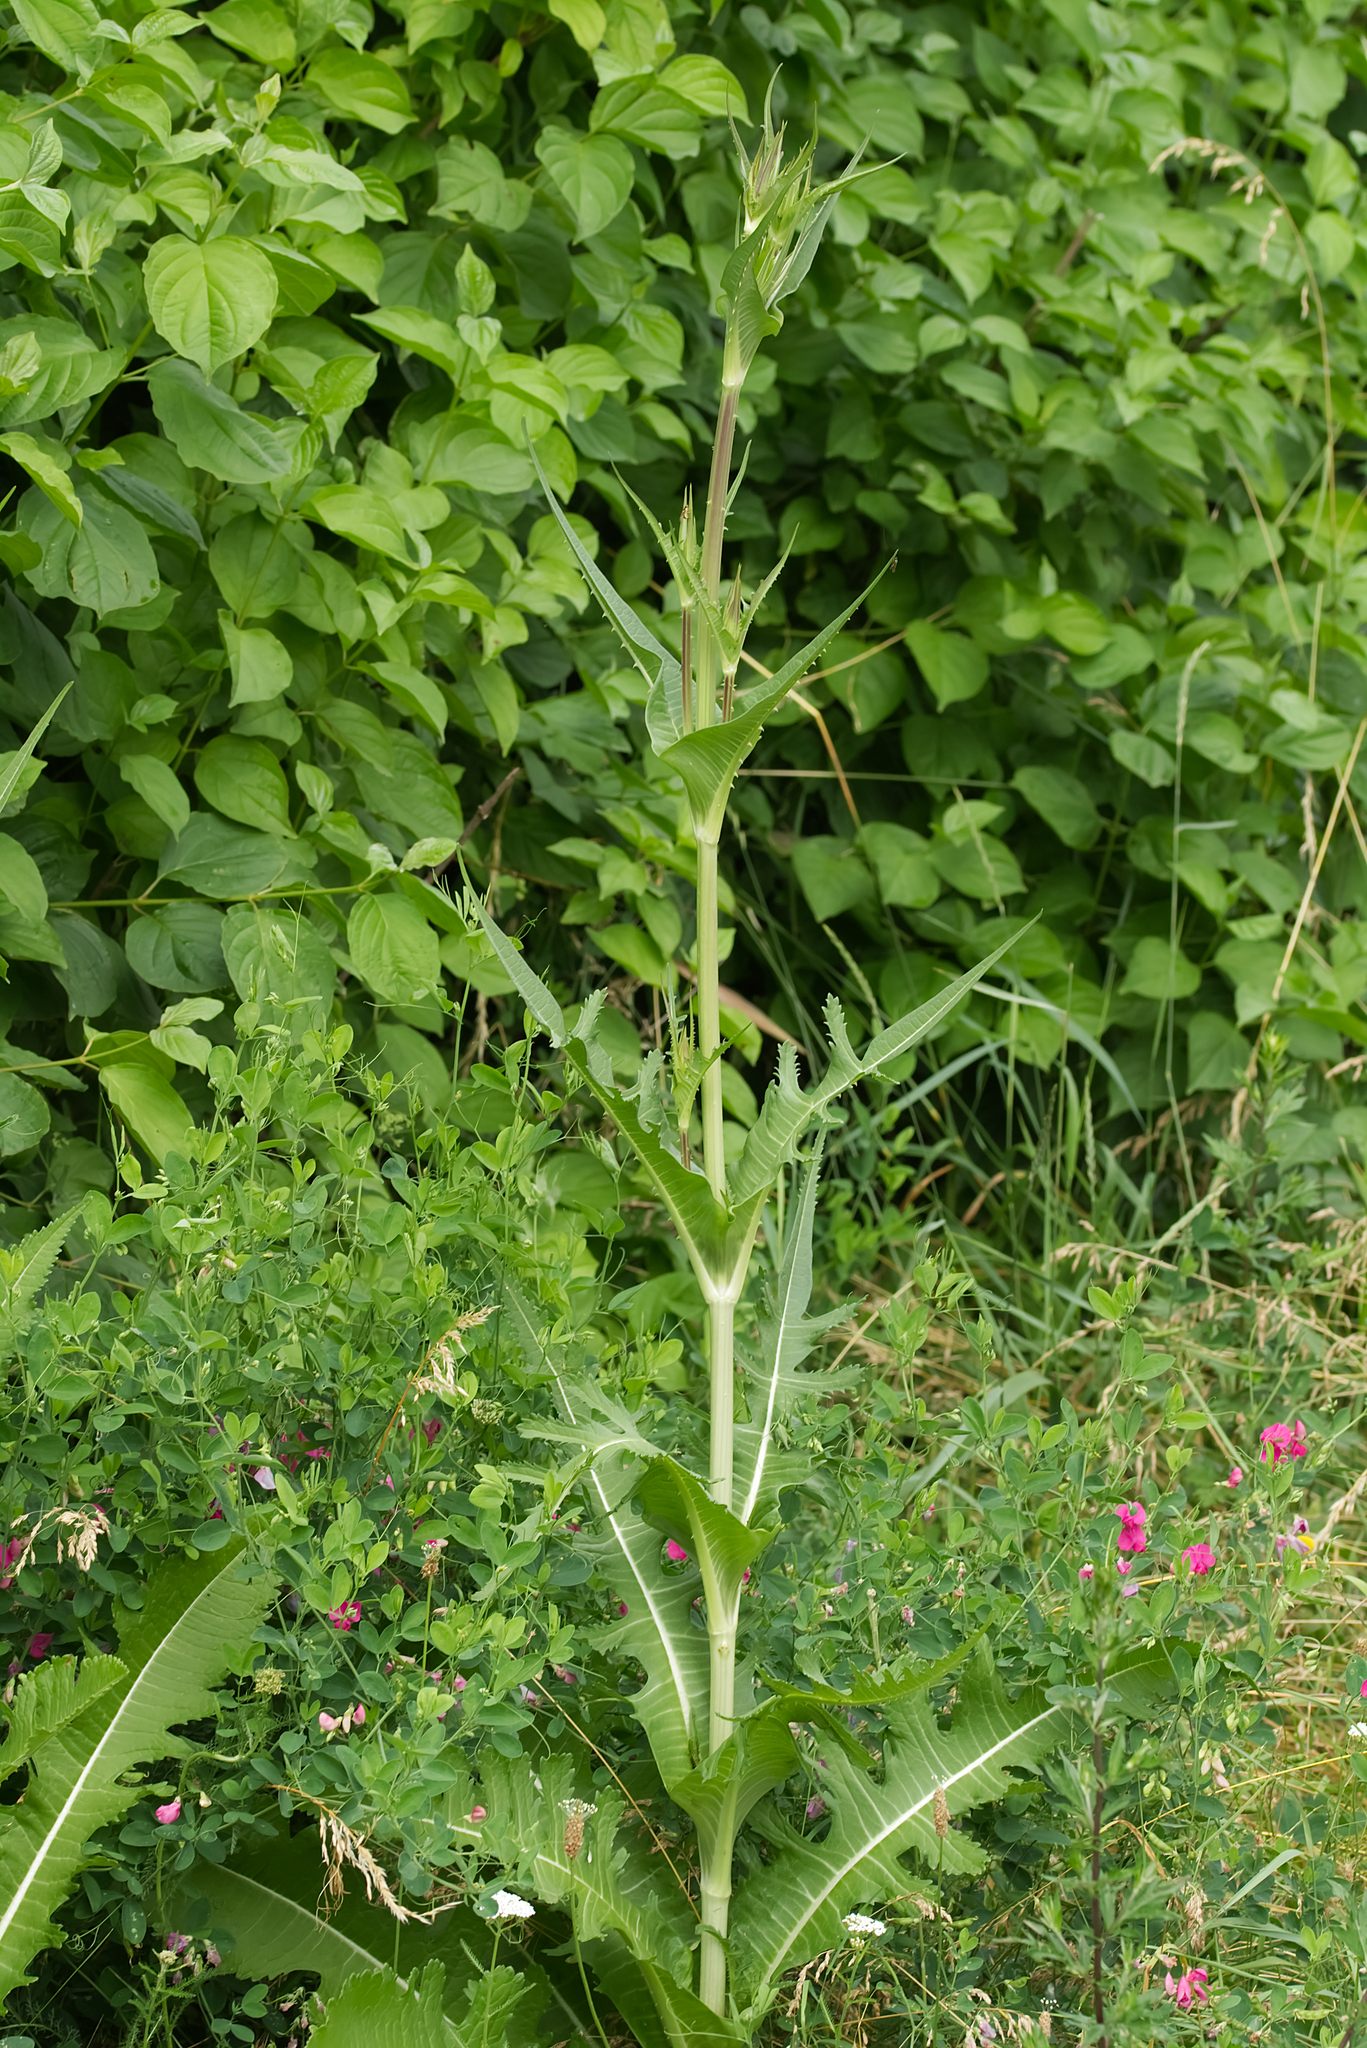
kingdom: Plantae
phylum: Tracheophyta
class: Magnoliopsida
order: Dipsacales
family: Caprifoliaceae
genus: Dipsacus
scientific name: Dipsacus laciniatus
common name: Cut-leaved teasel
